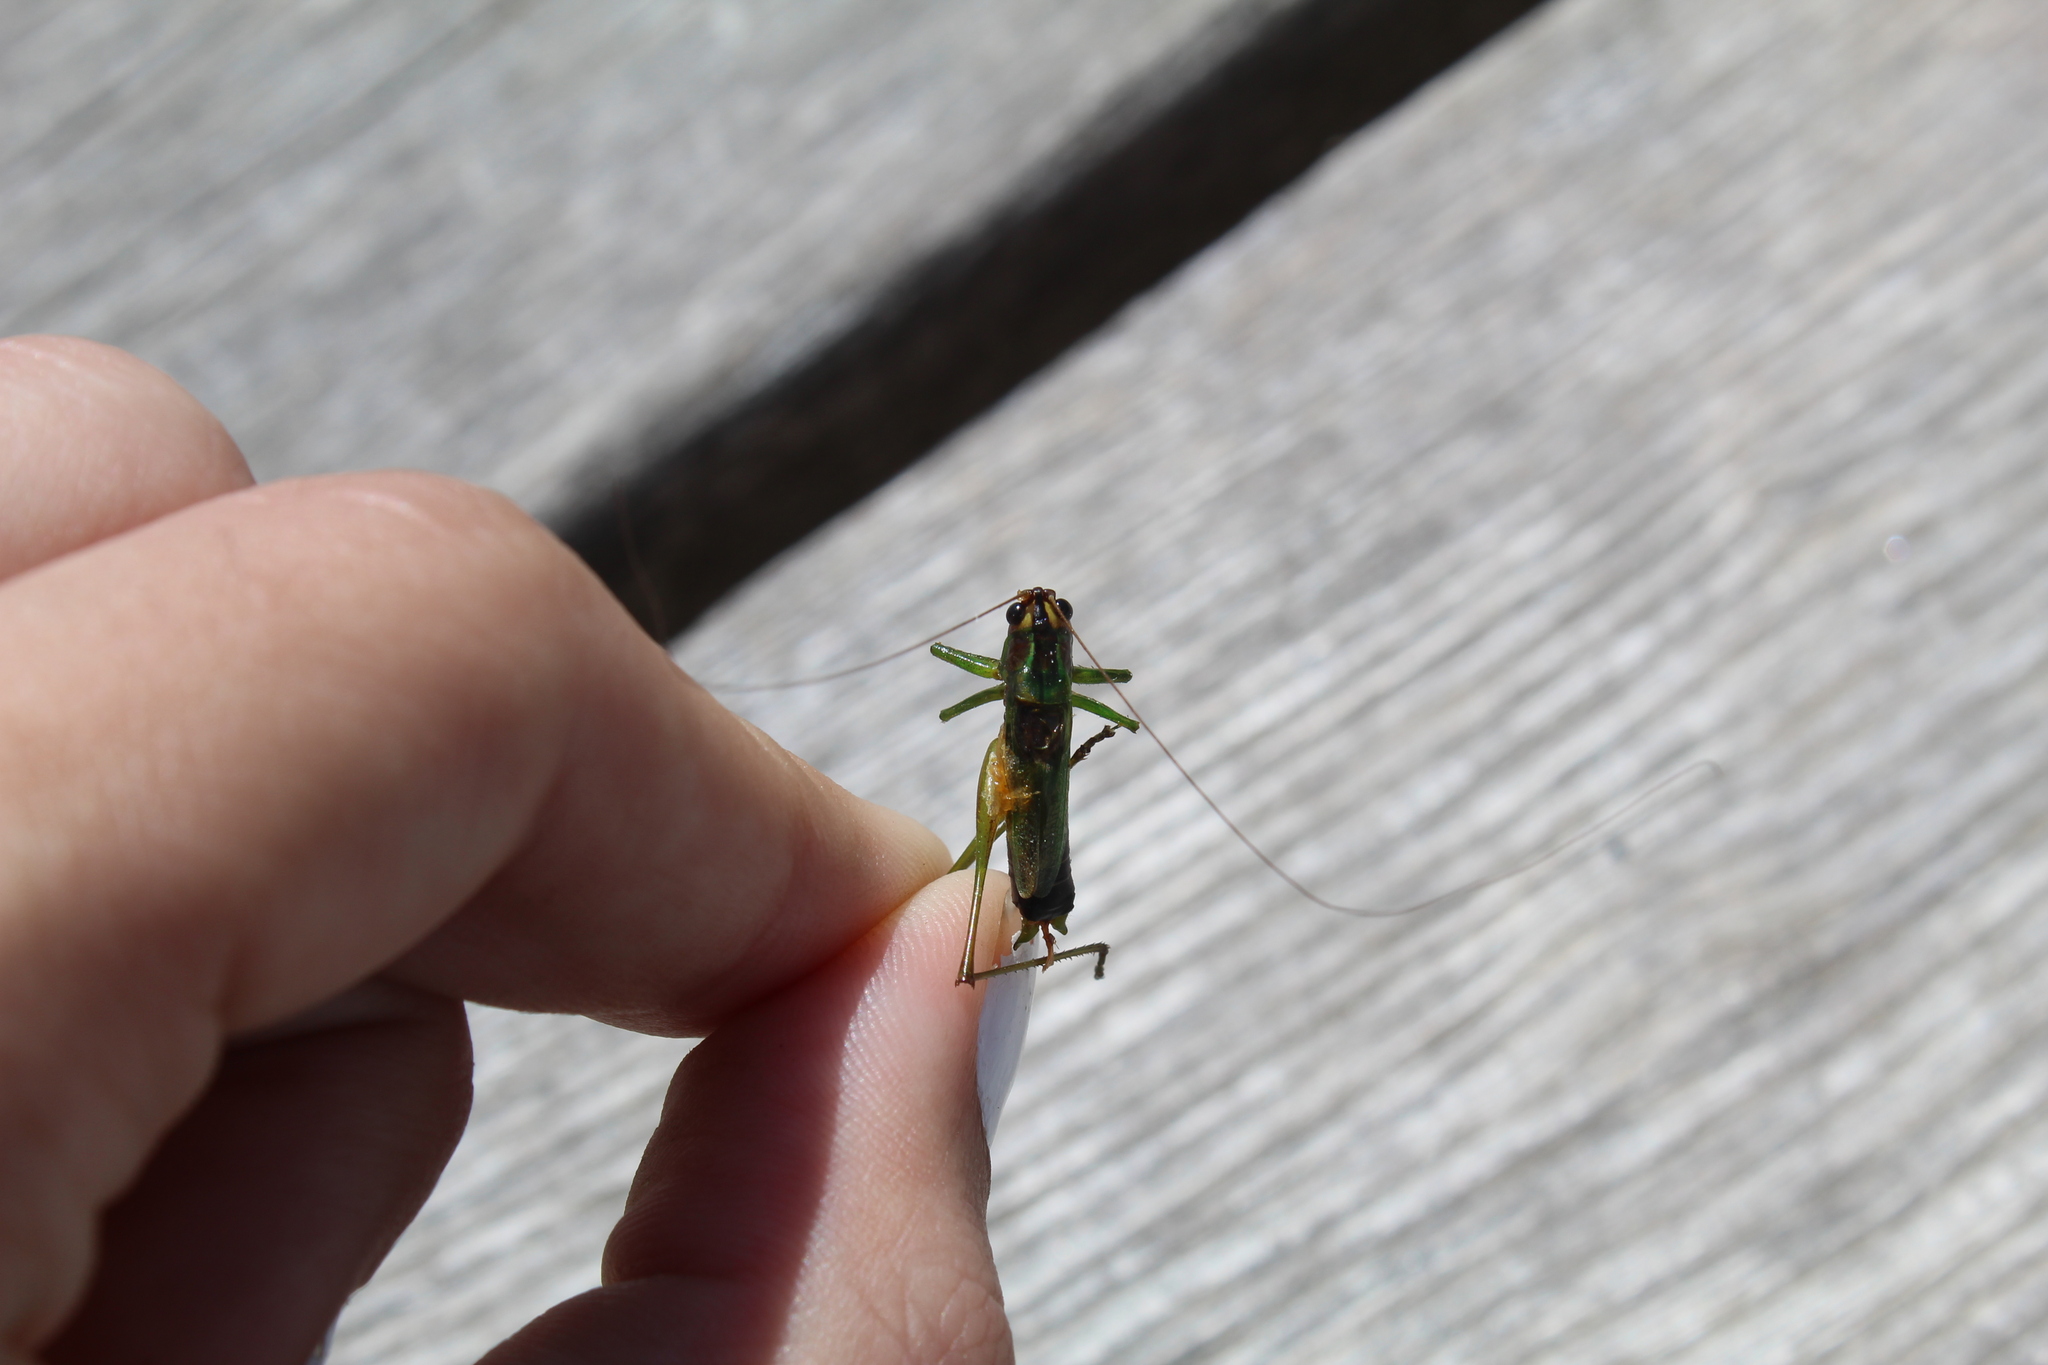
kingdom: Animalia
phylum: Arthropoda
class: Insecta
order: Orthoptera
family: Tettigoniidae
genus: Conocephalus
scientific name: Conocephalus nigropleurum
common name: Black-sided meadow katydid
